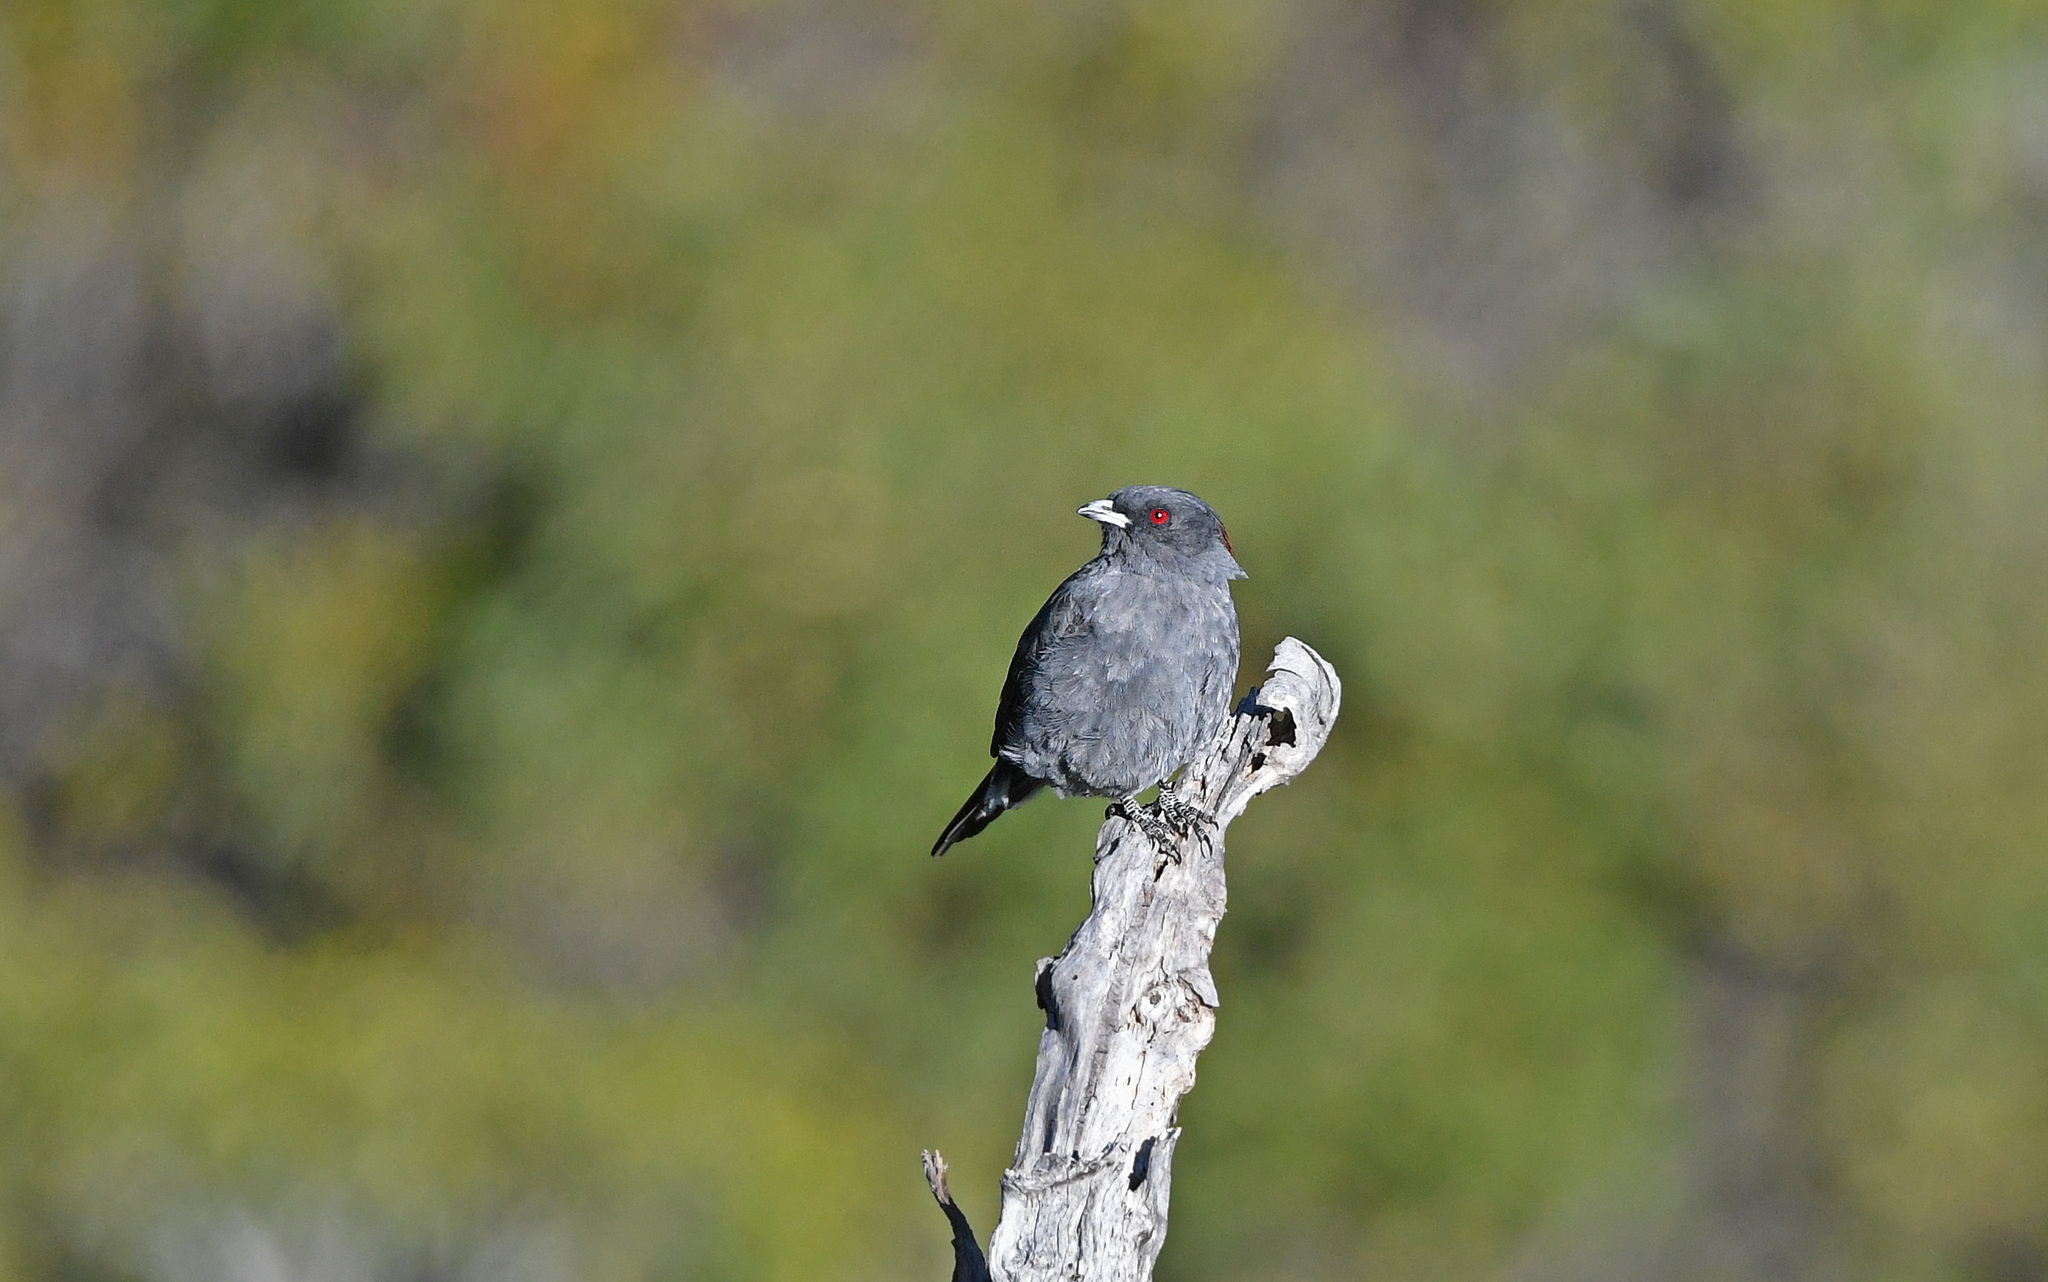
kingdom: Animalia
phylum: Chordata
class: Aves
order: Passeriformes
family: Cotingidae
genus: Ampelion
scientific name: Ampelion rubrocristatus
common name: Red-crested cotinga
